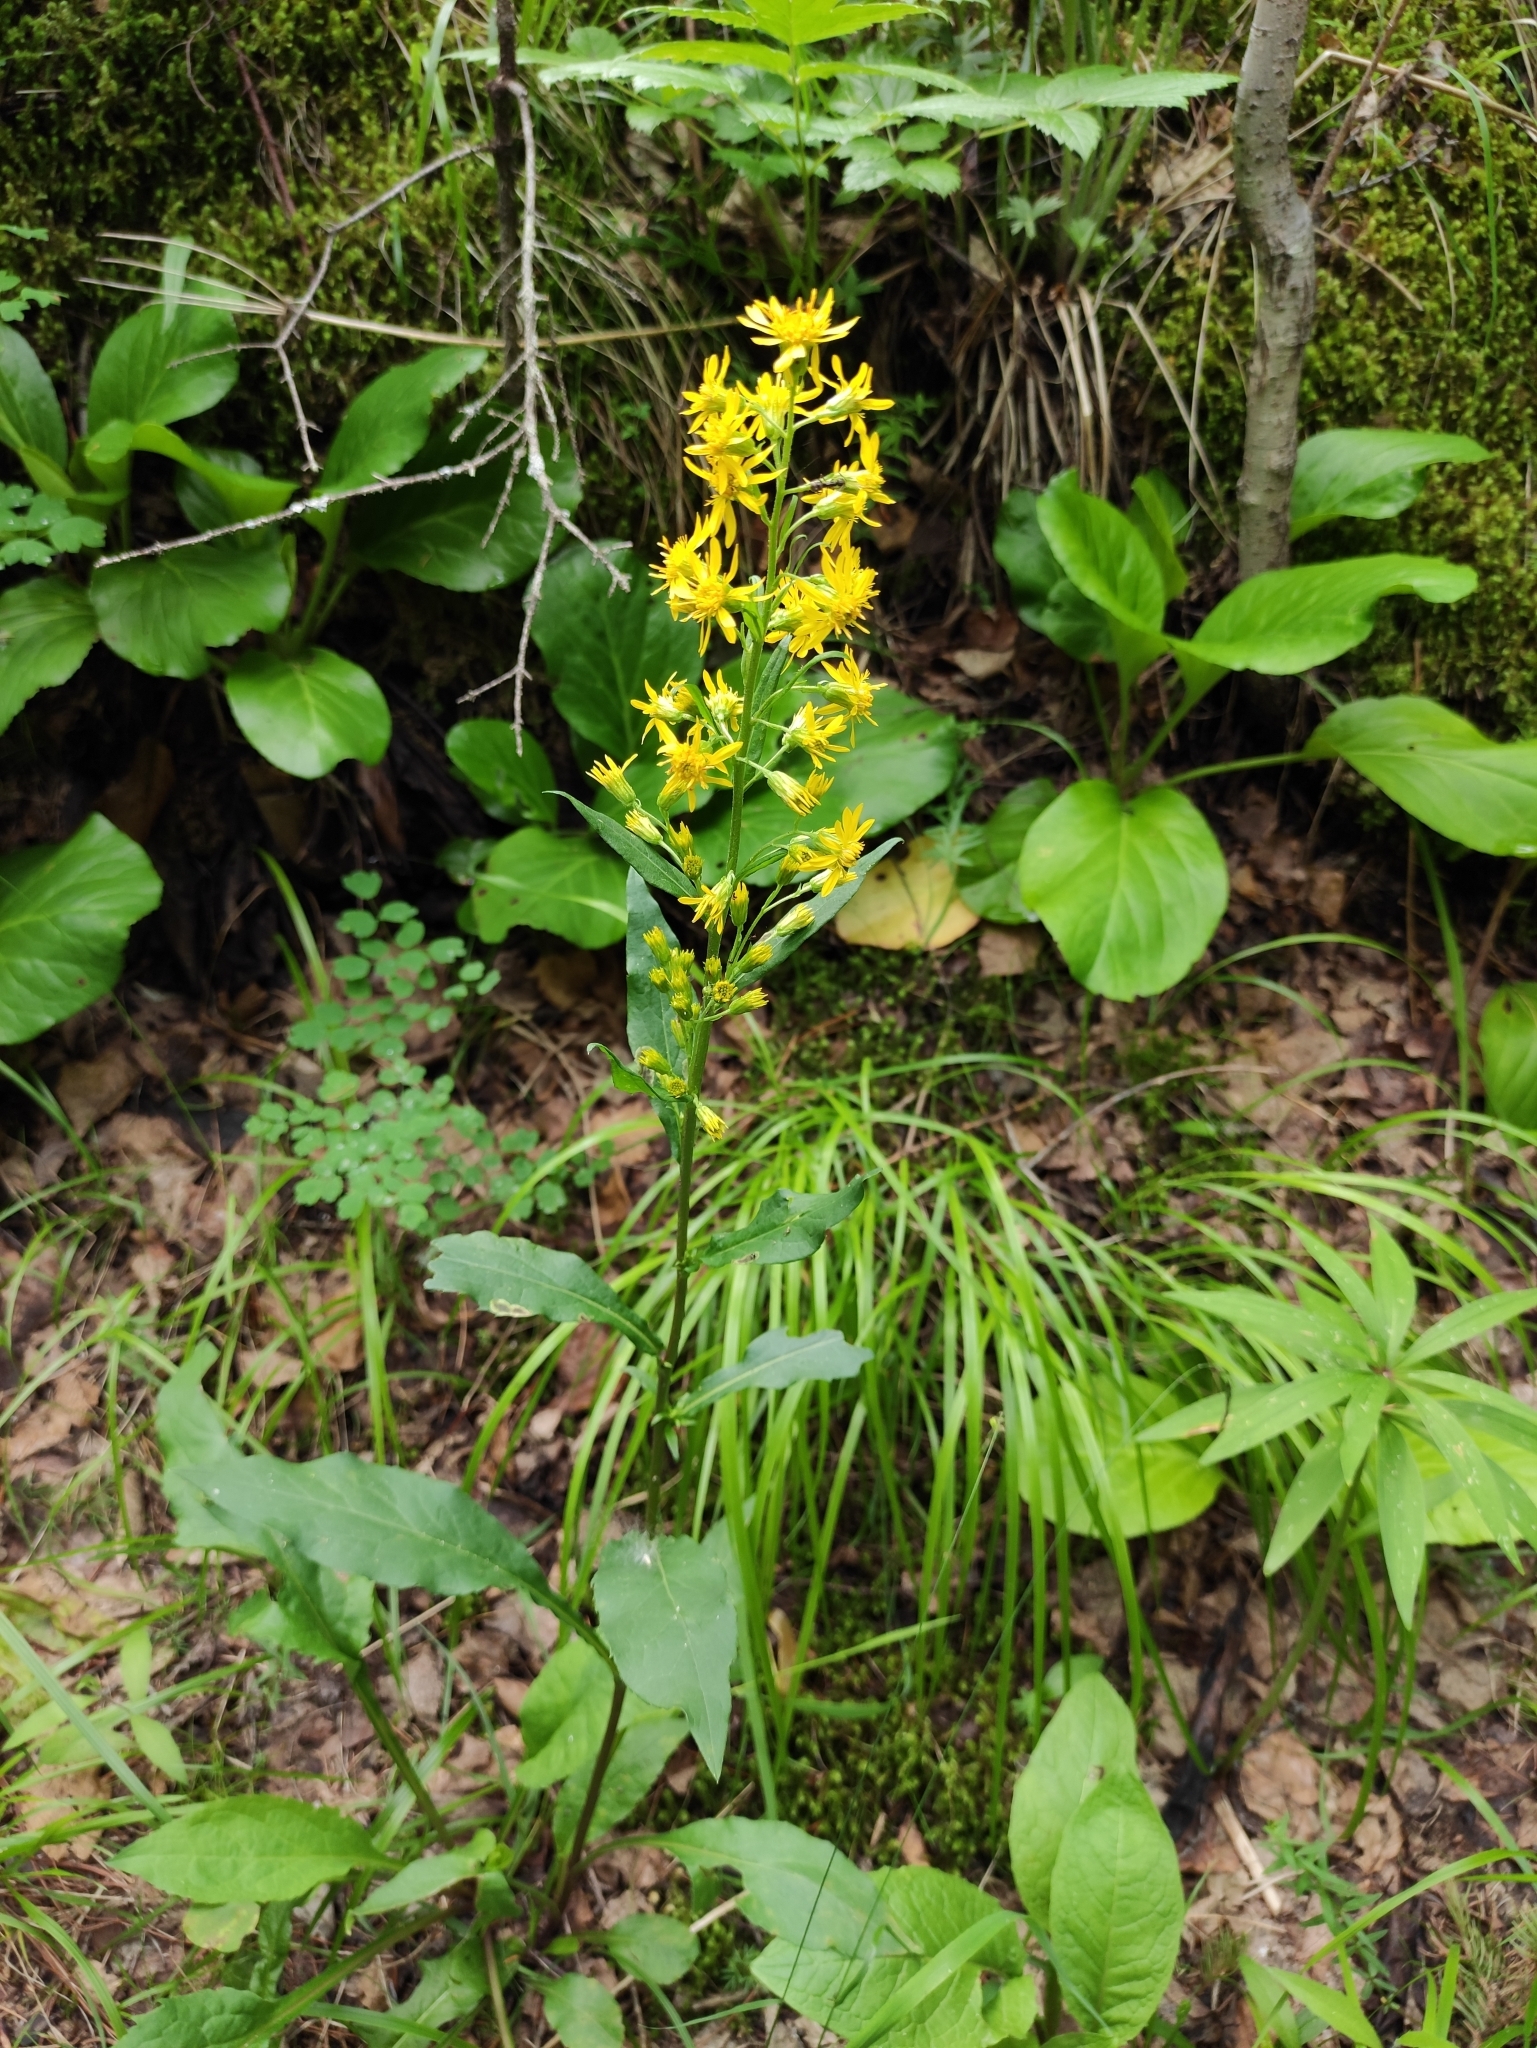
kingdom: Plantae
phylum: Tracheophyta
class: Magnoliopsida
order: Asterales
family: Asteraceae
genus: Solidago
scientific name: Solidago dahurica
